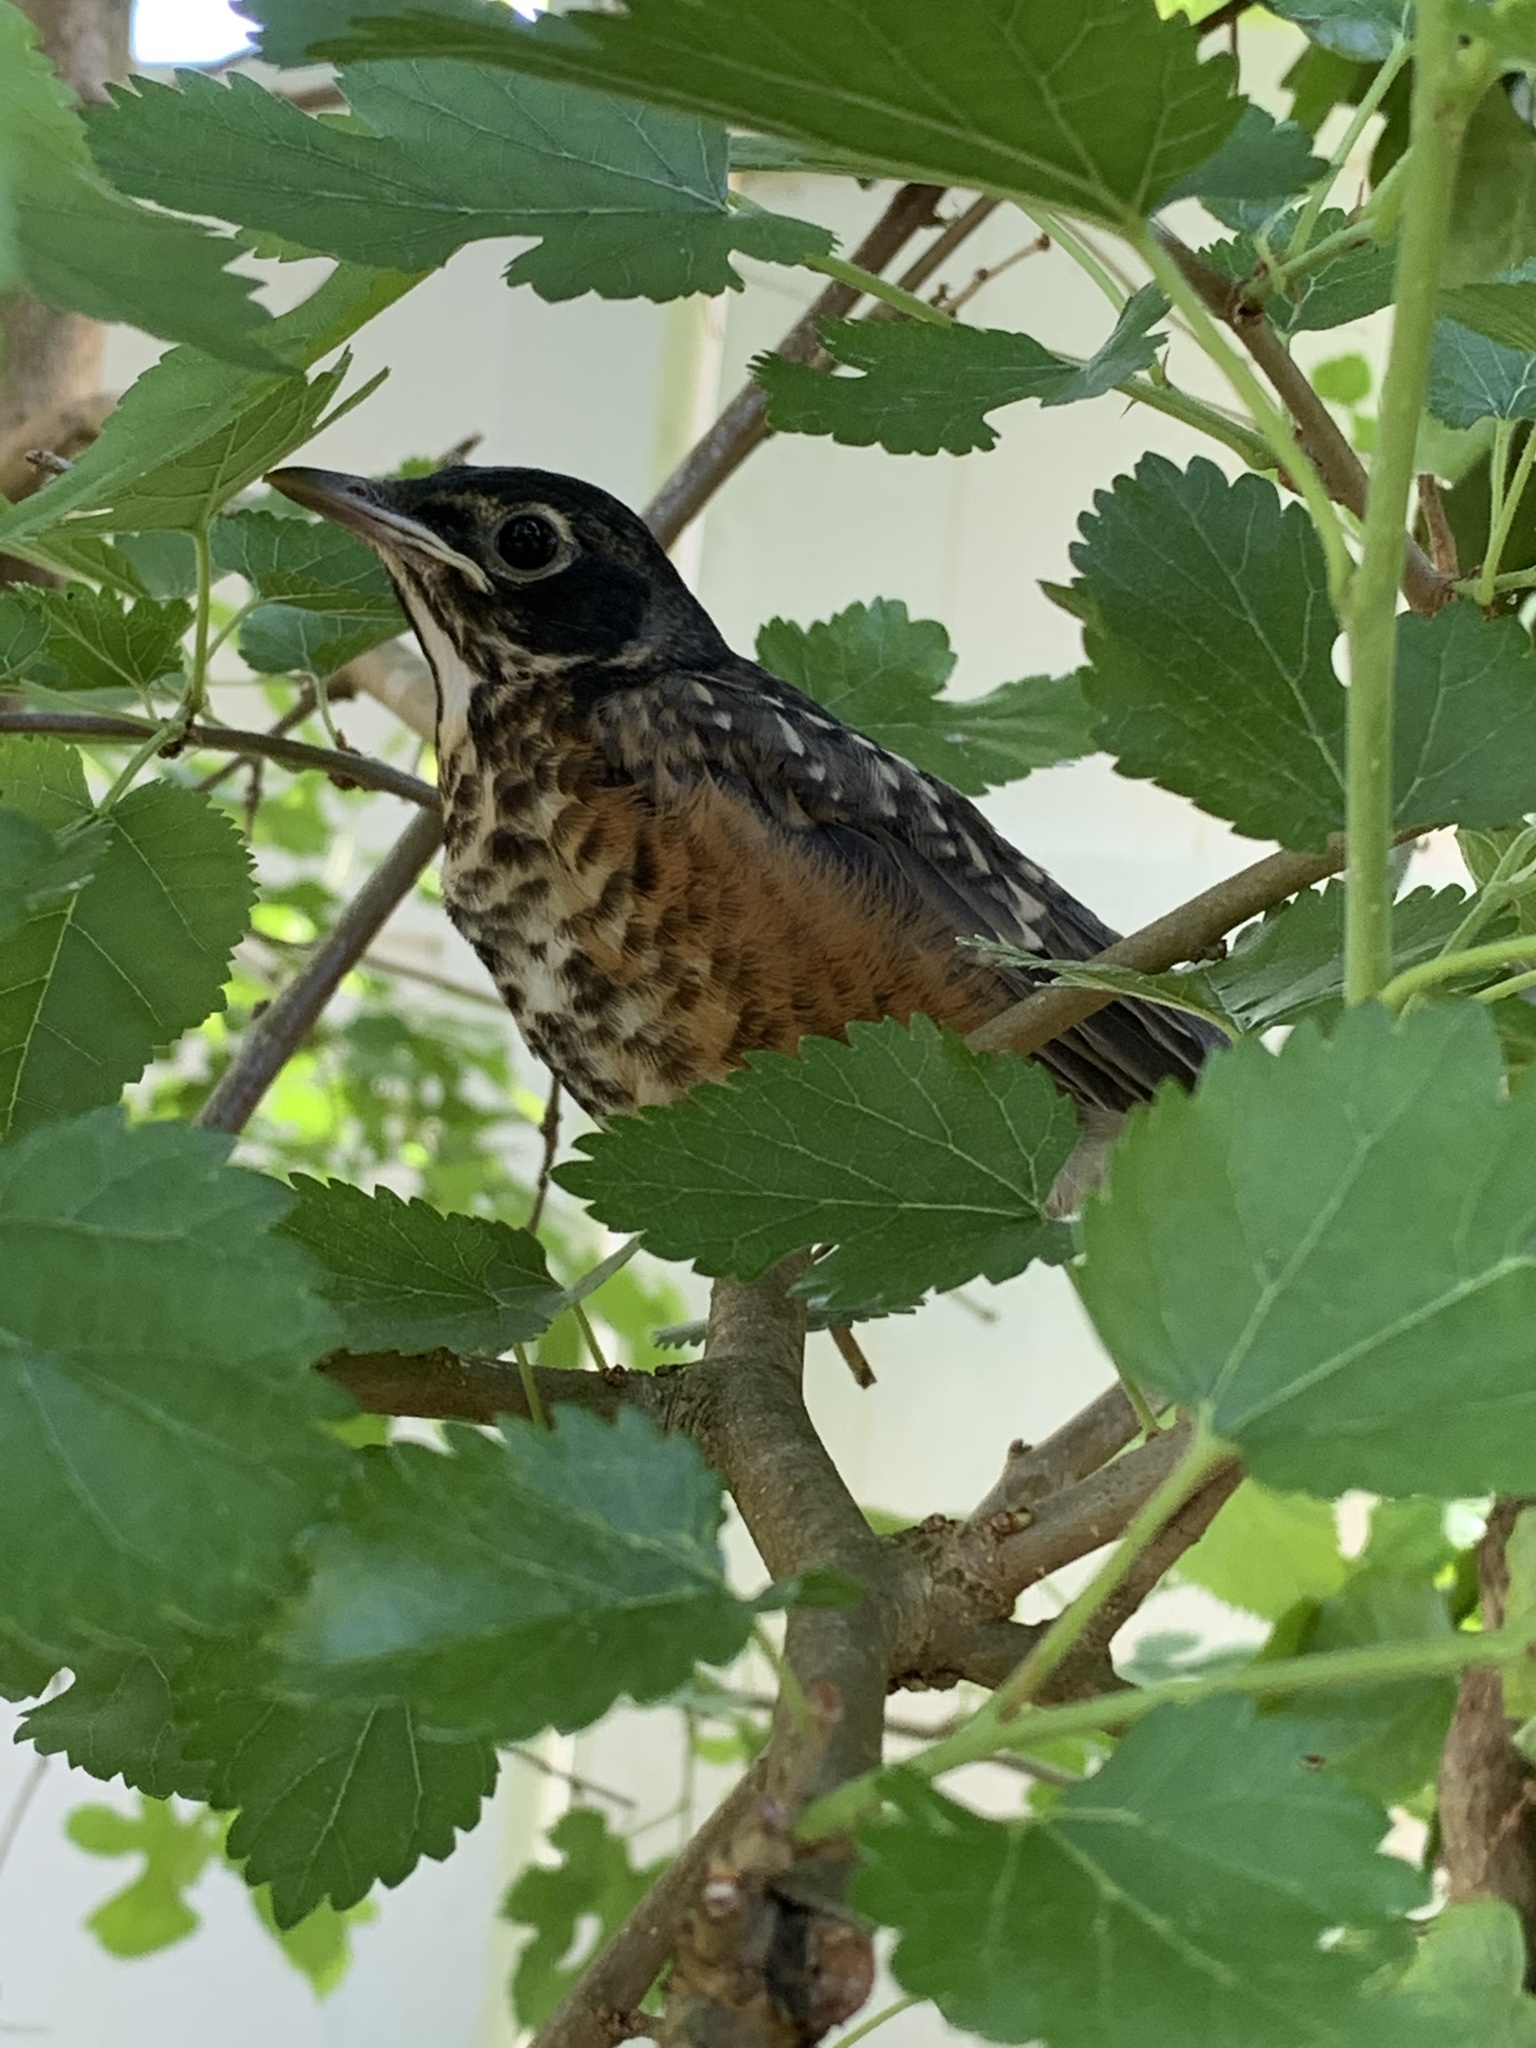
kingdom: Animalia
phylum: Chordata
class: Aves
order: Passeriformes
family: Turdidae
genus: Turdus
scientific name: Turdus migratorius
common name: American robin
